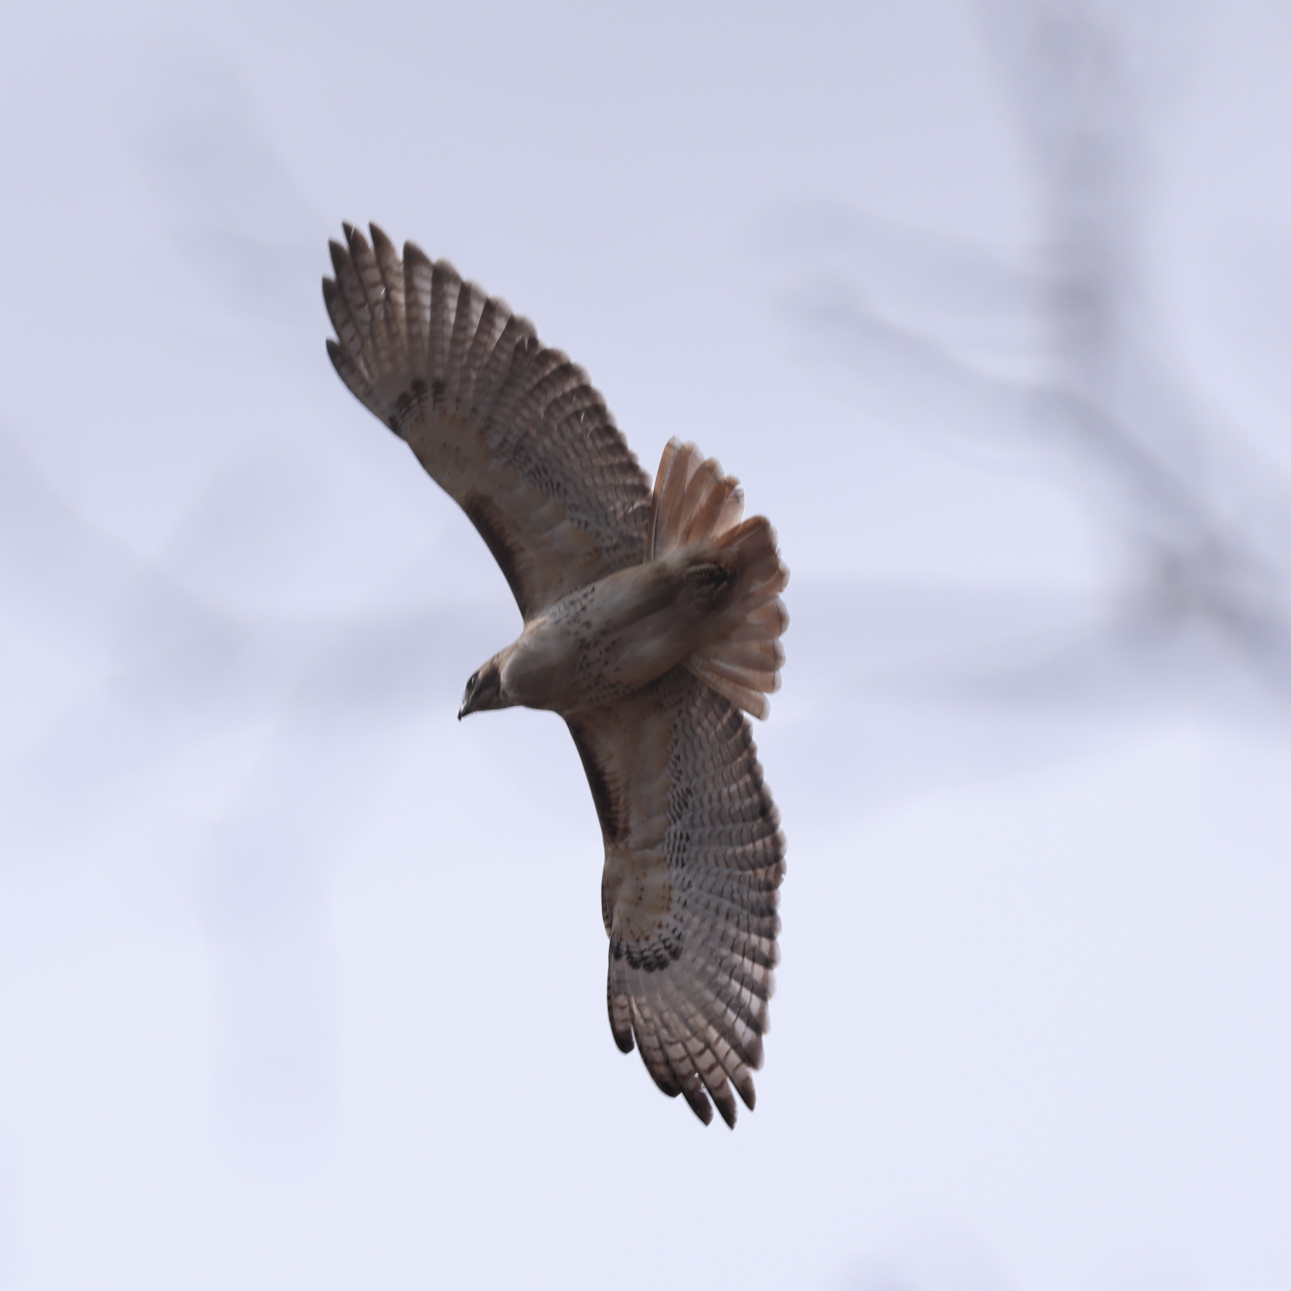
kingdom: Animalia
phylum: Chordata
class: Aves
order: Accipitriformes
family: Accipitridae
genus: Buteo
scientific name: Buteo jamaicensis
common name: Red-tailed hawk
